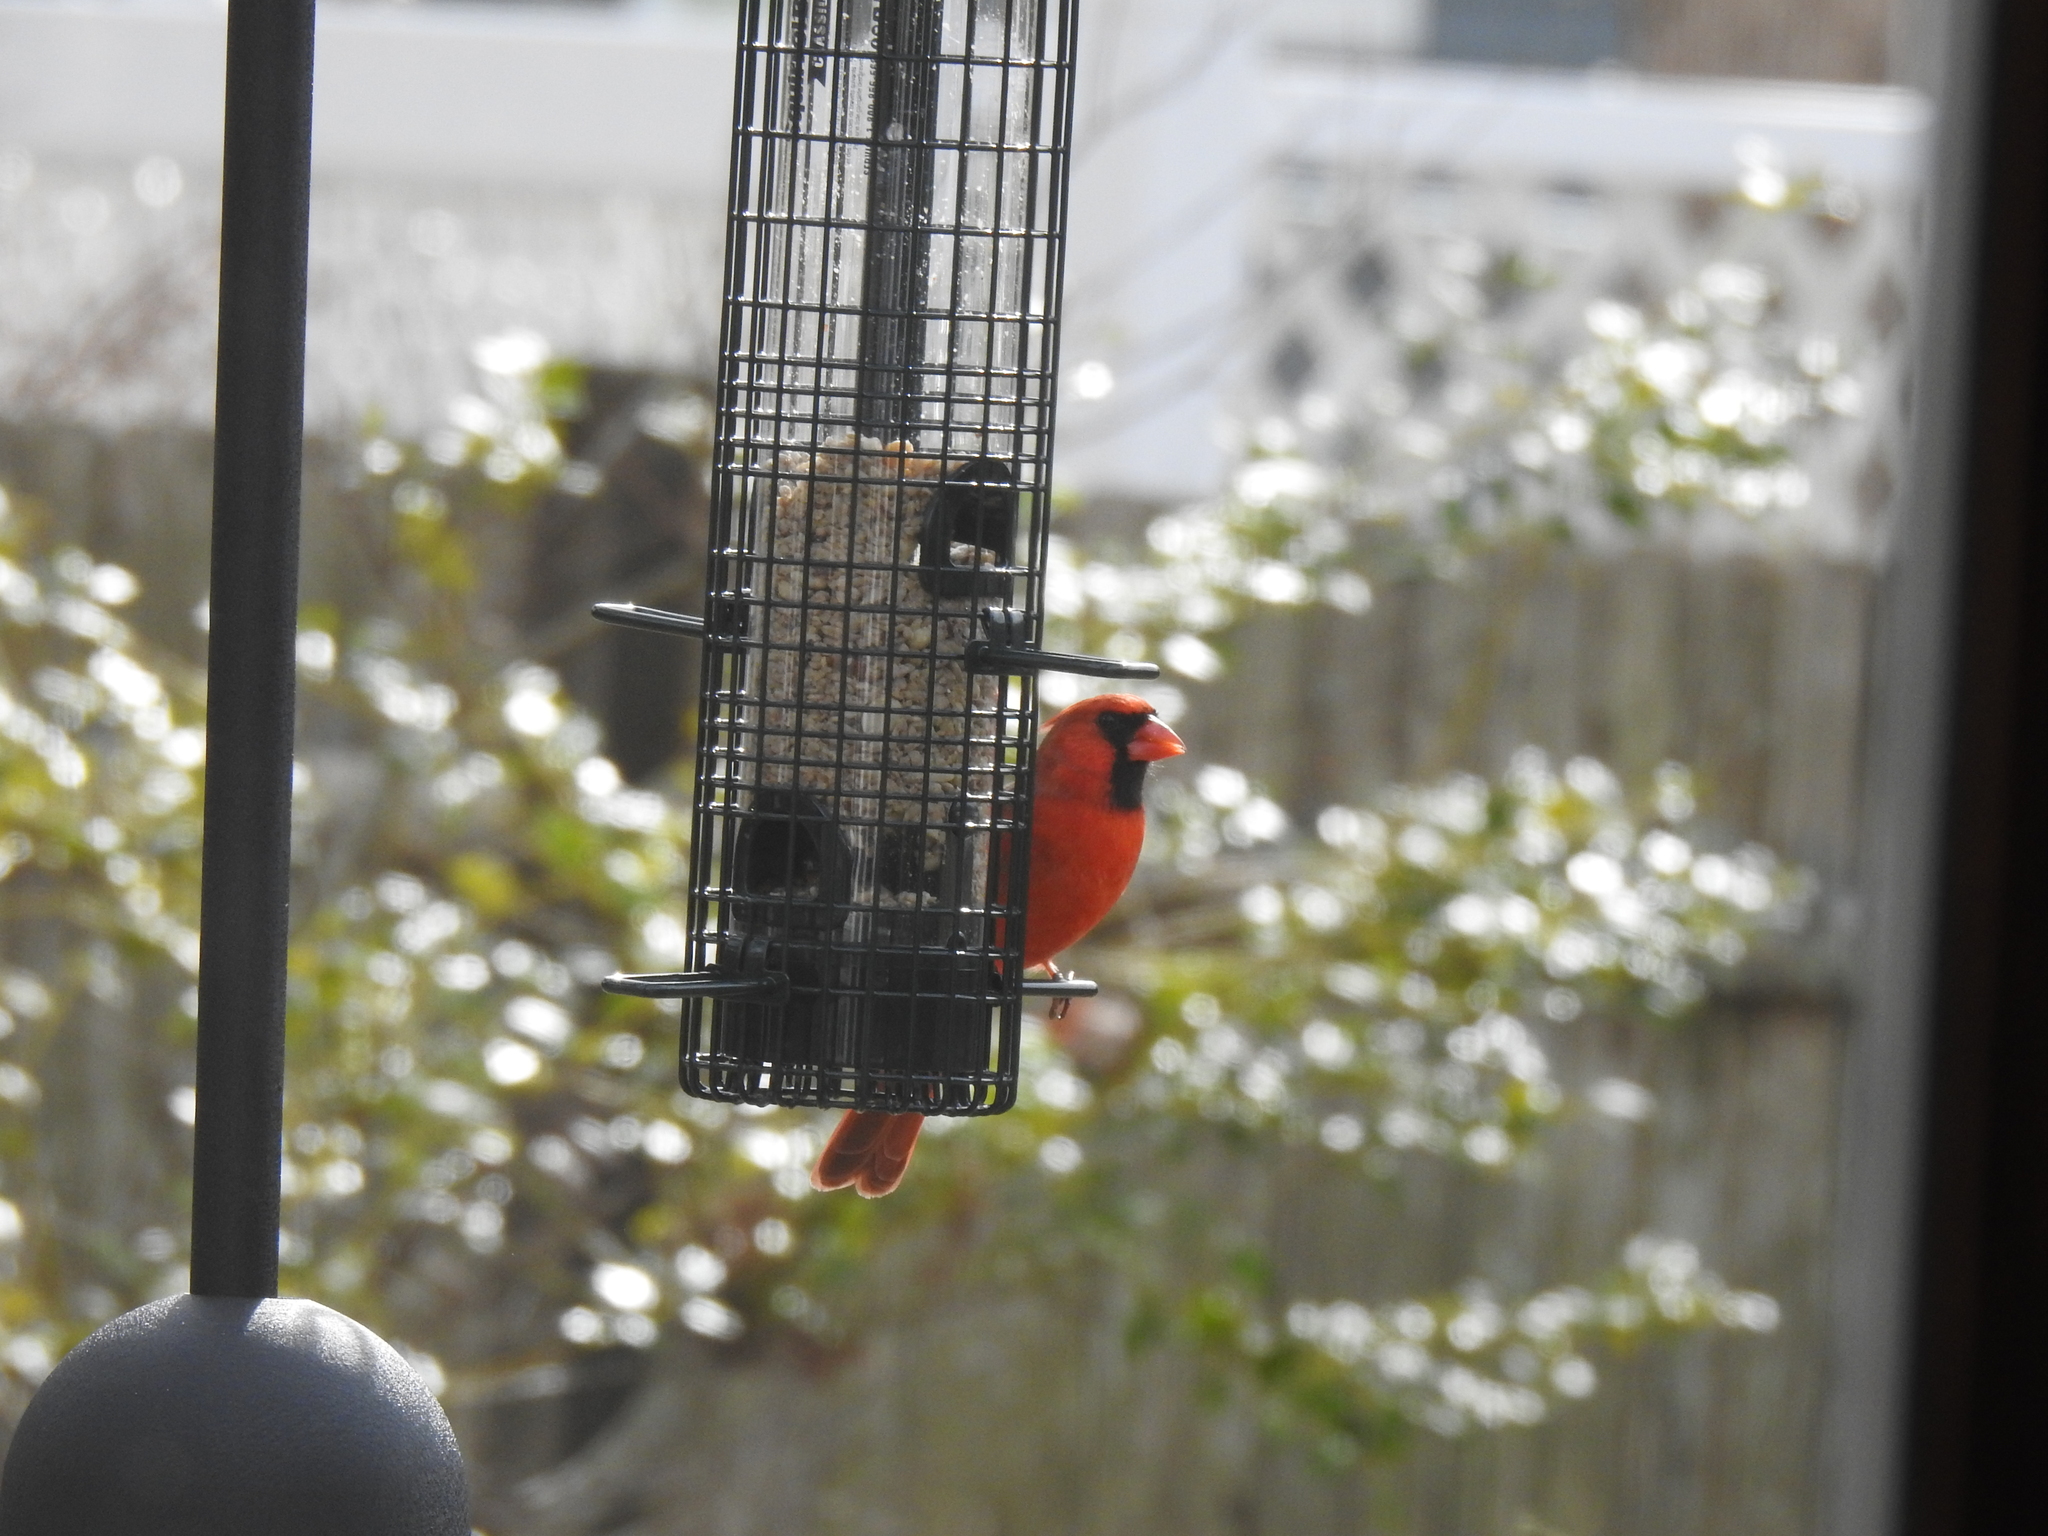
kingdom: Animalia
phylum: Chordata
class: Aves
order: Passeriformes
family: Cardinalidae
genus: Cardinalis
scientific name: Cardinalis cardinalis
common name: Northern cardinal
